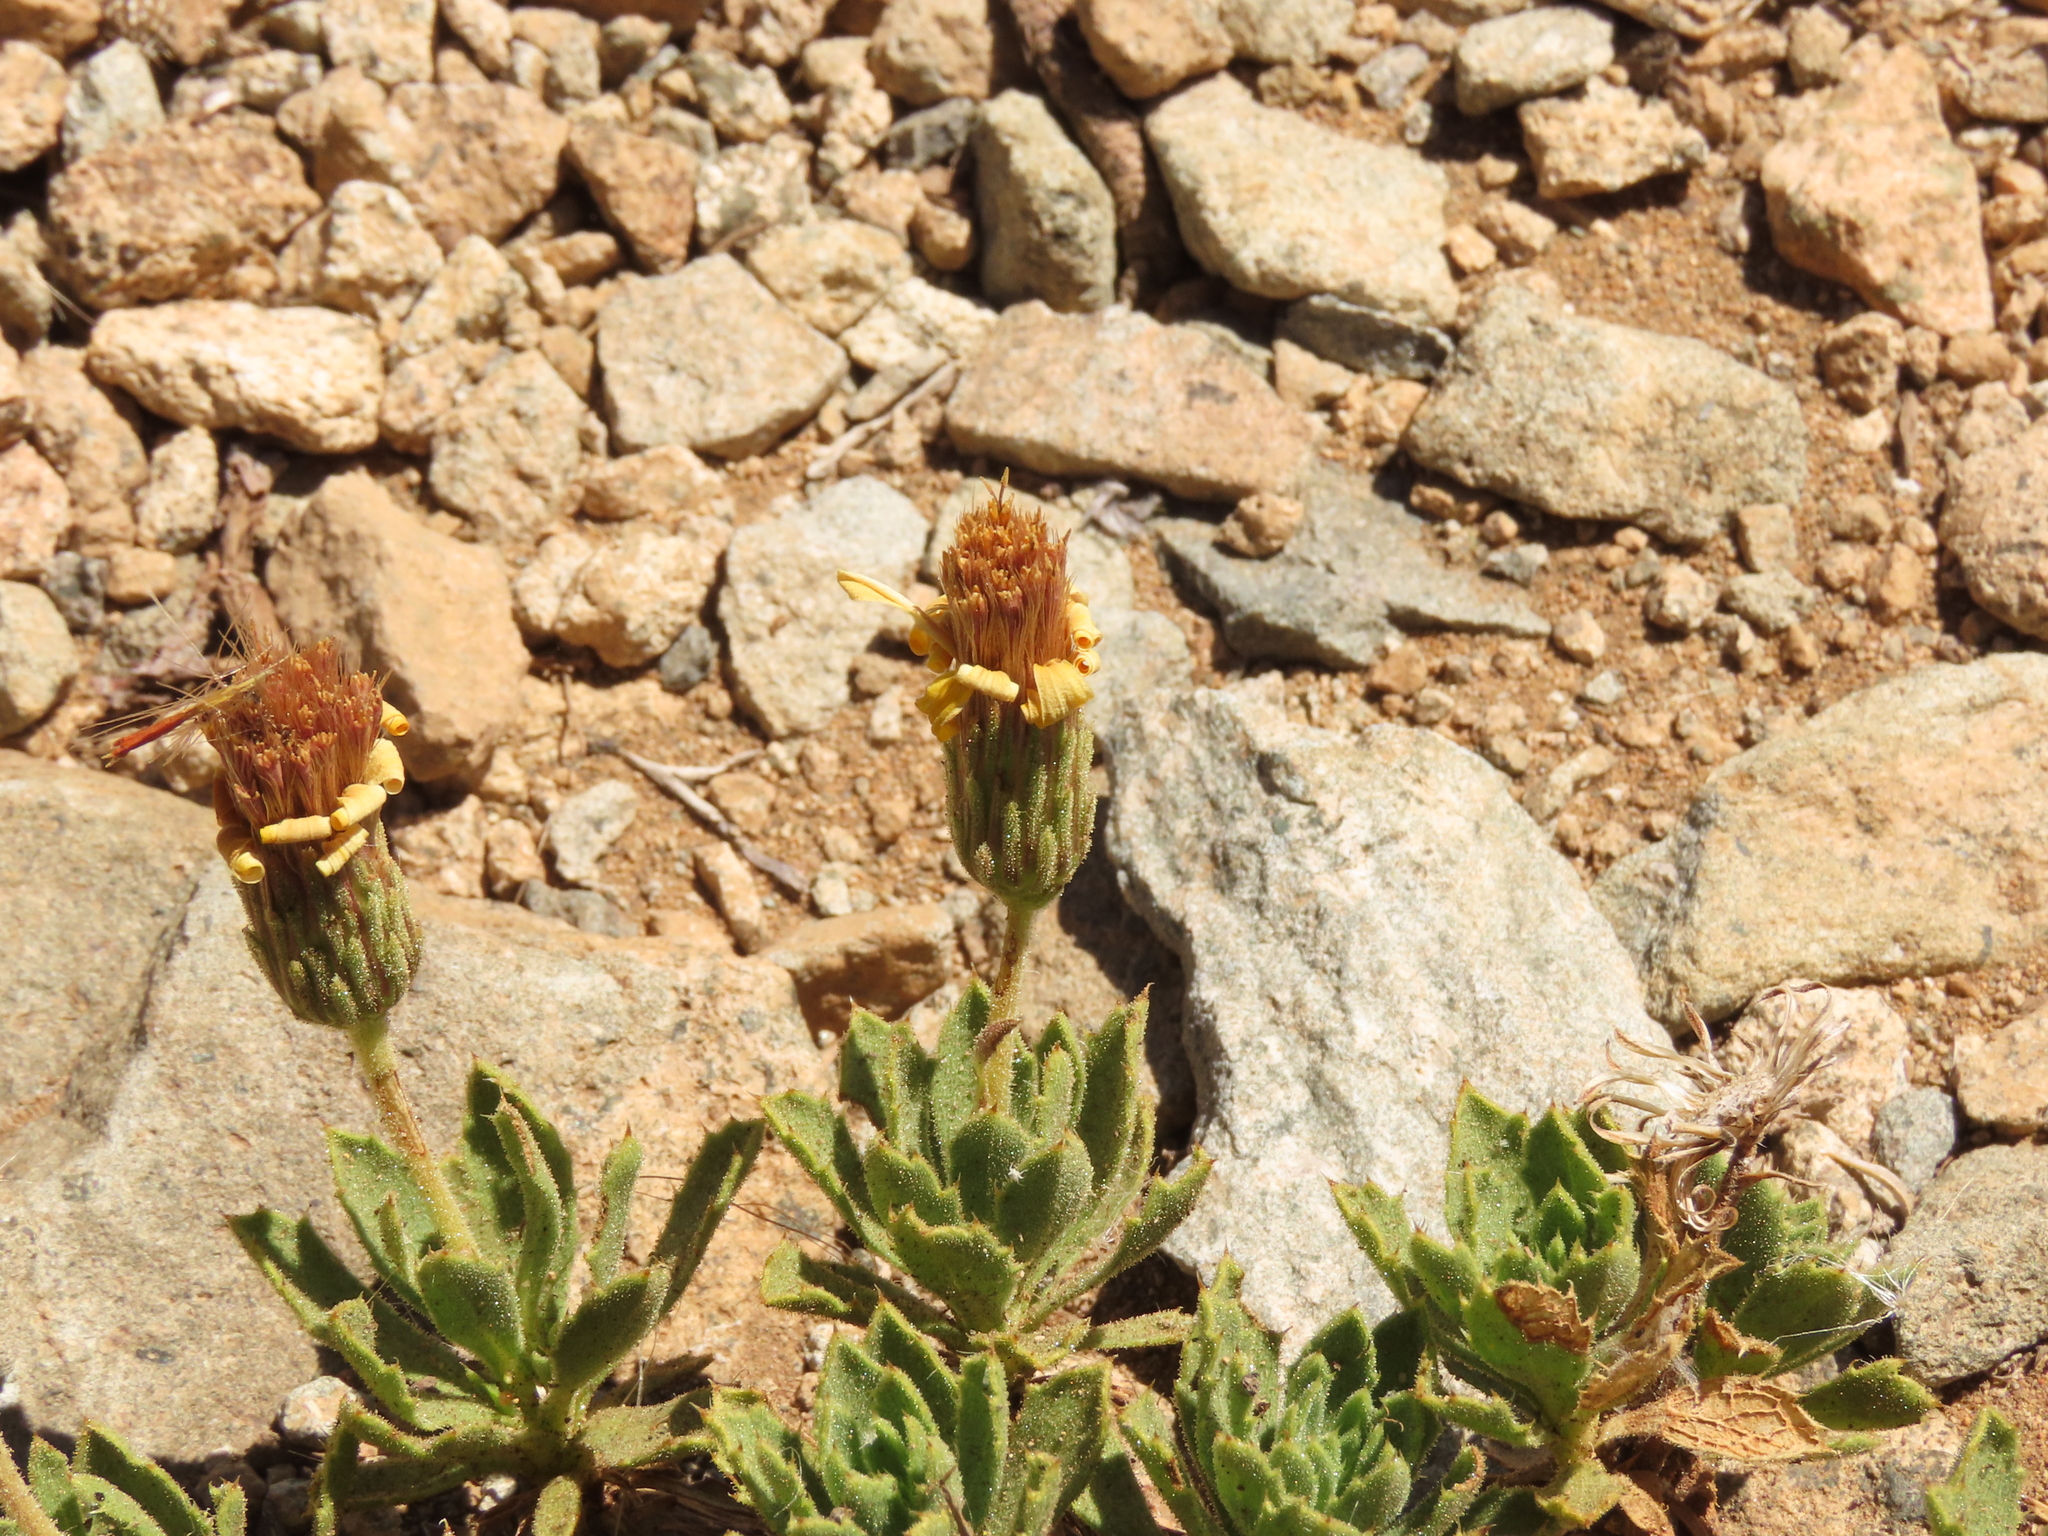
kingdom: Plantae
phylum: Tracheophyta
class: Magnoliopsida
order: Asterales
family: Asteraceae
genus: Haplopappus
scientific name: Haplopappus anthylloides
